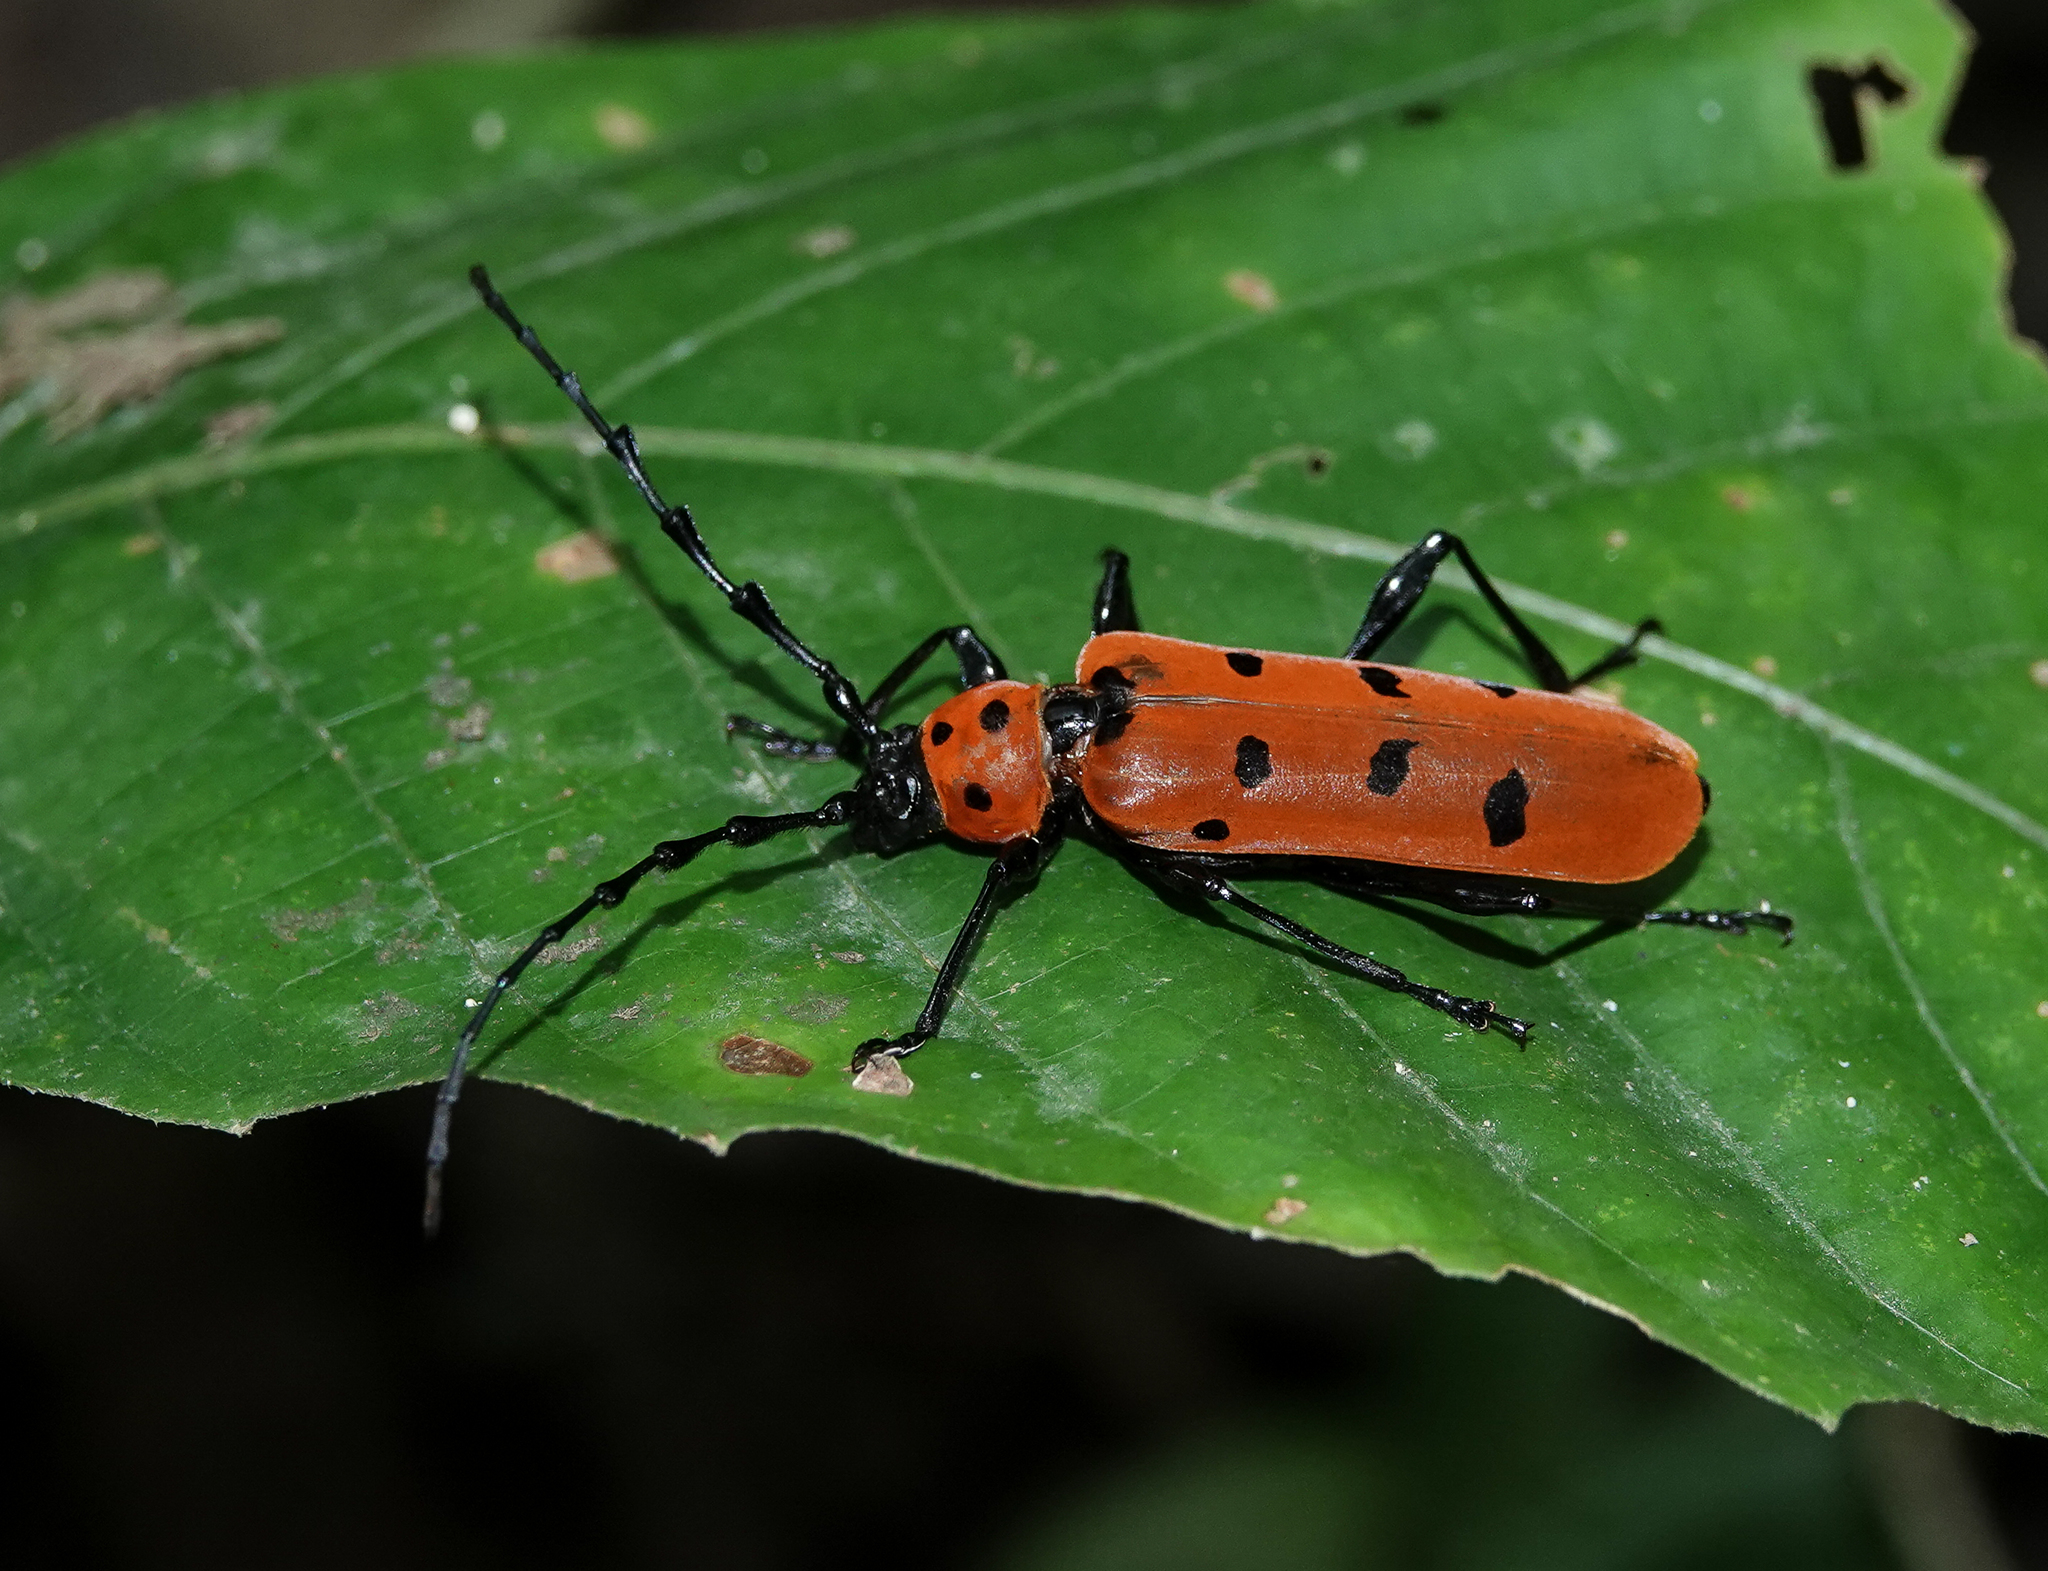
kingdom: Animalia
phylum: Arthropoda
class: Insecta
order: Coleoptera
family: Cerambycidae
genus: Rosalia
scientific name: Rosalia decempunctata
